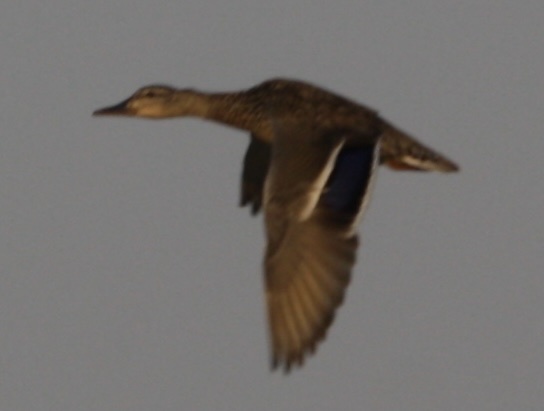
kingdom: Animalia
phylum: Chordata
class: Aves
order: Anseriformes
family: Anatidae
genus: Anas
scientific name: Anas platyrhynchos
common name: Mallard
